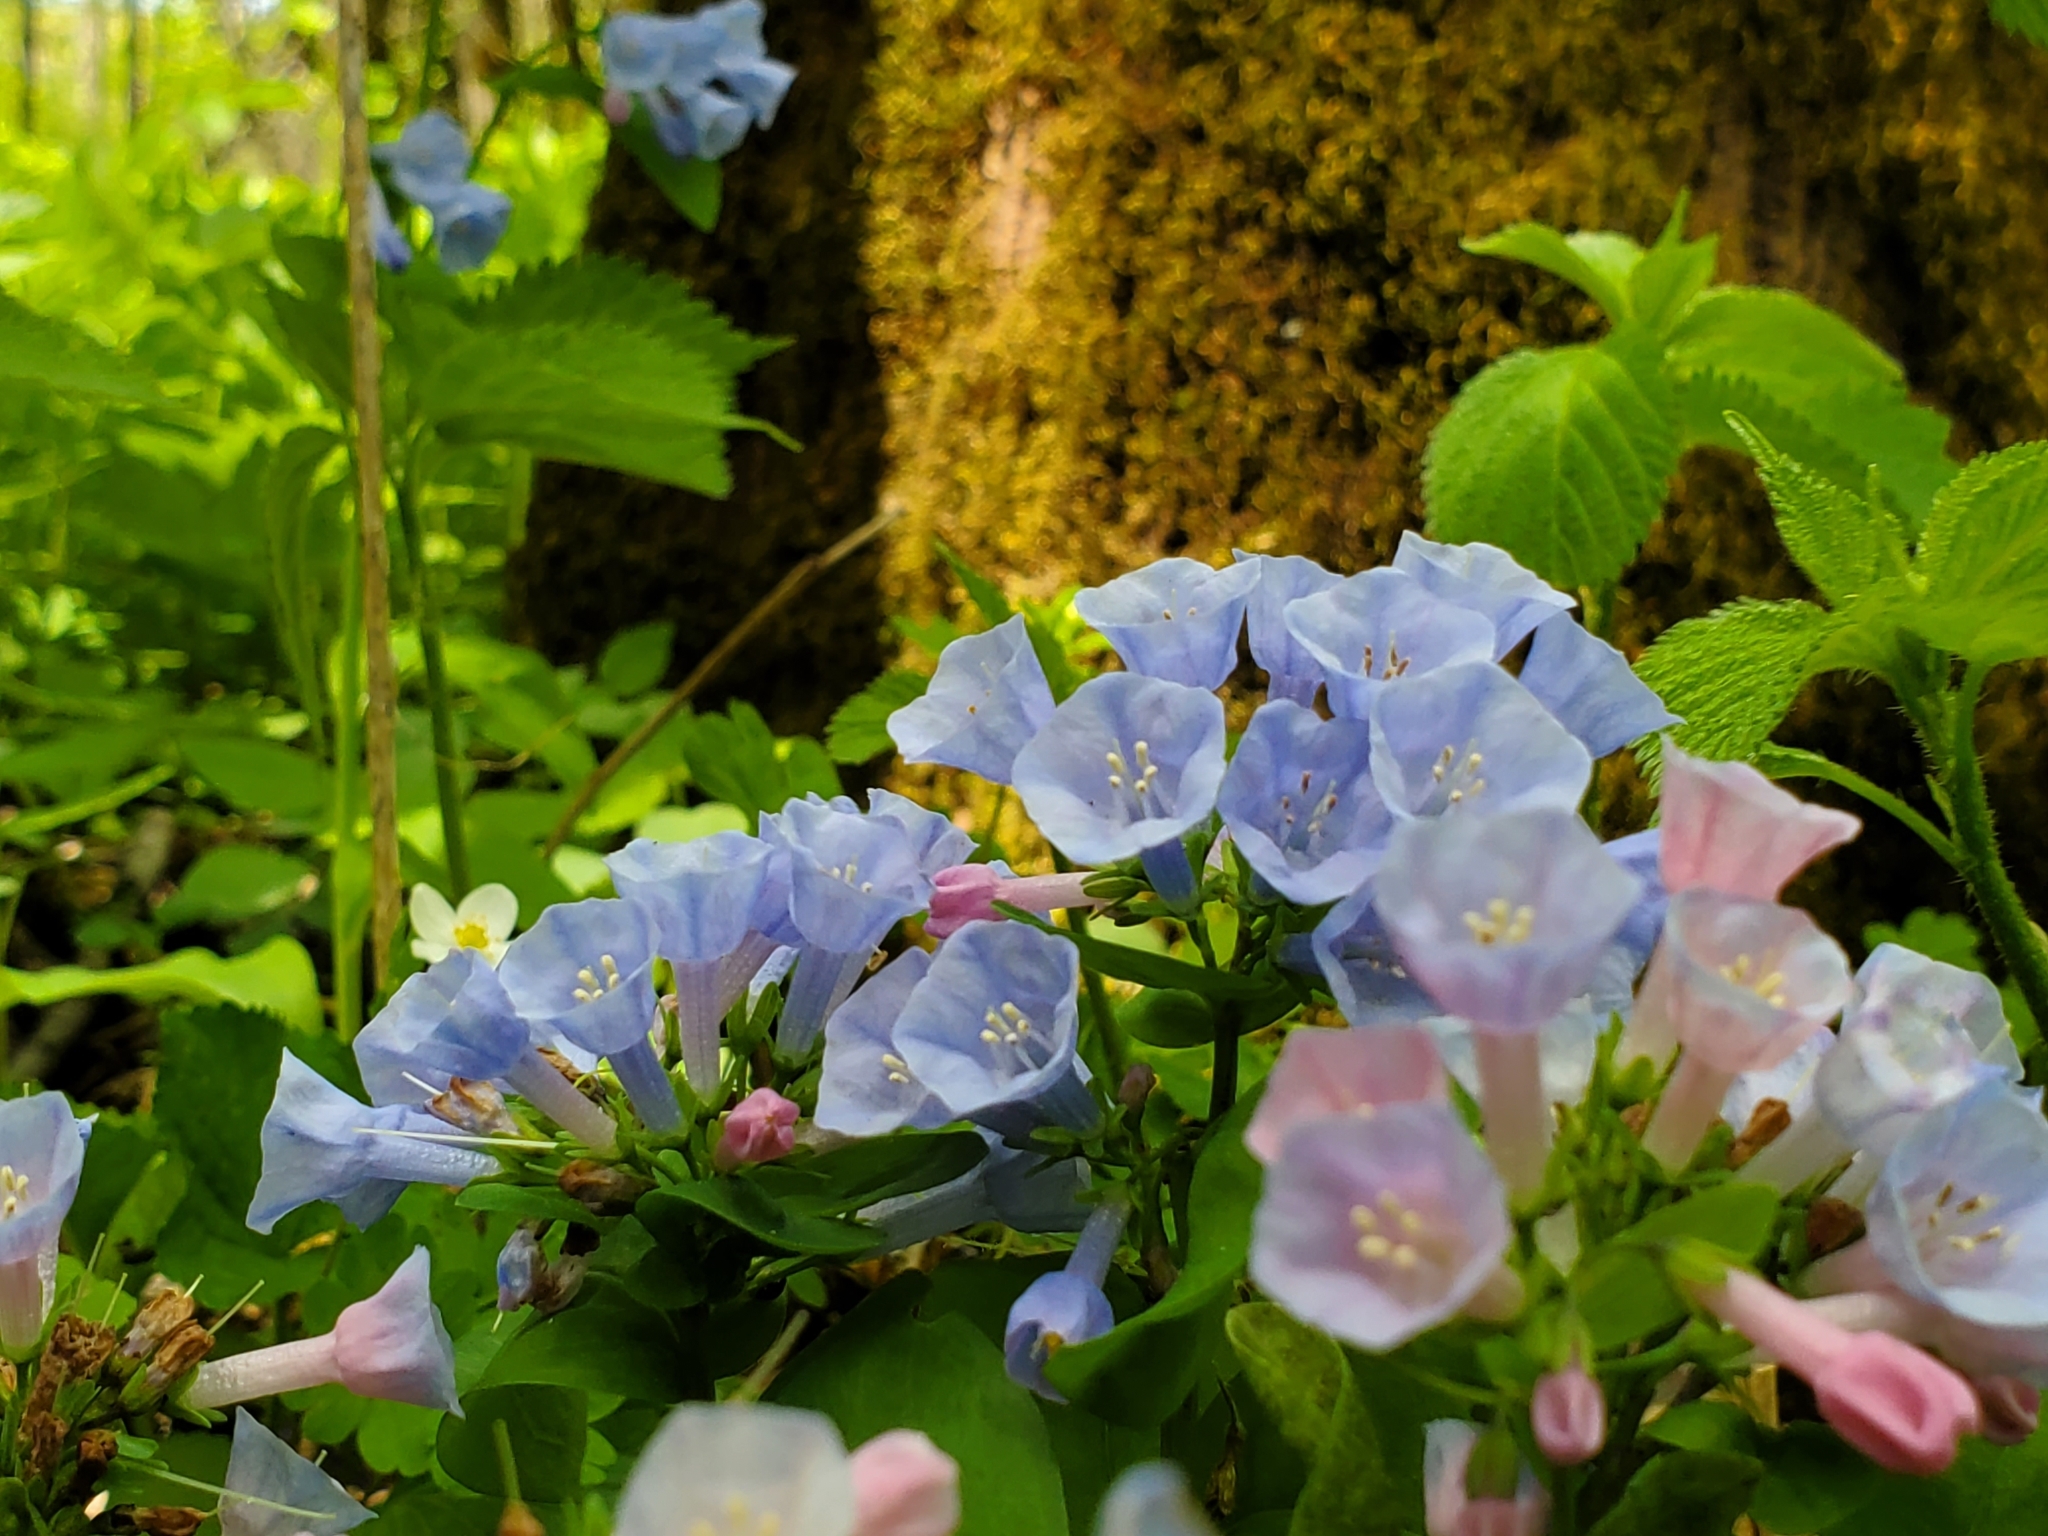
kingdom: Plantae
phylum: Tracheophyta
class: Magnoliopsida
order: Boraginales
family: Boraginaceae
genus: Mertensia
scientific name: Mertensia virginica
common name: Virginia bluebells
